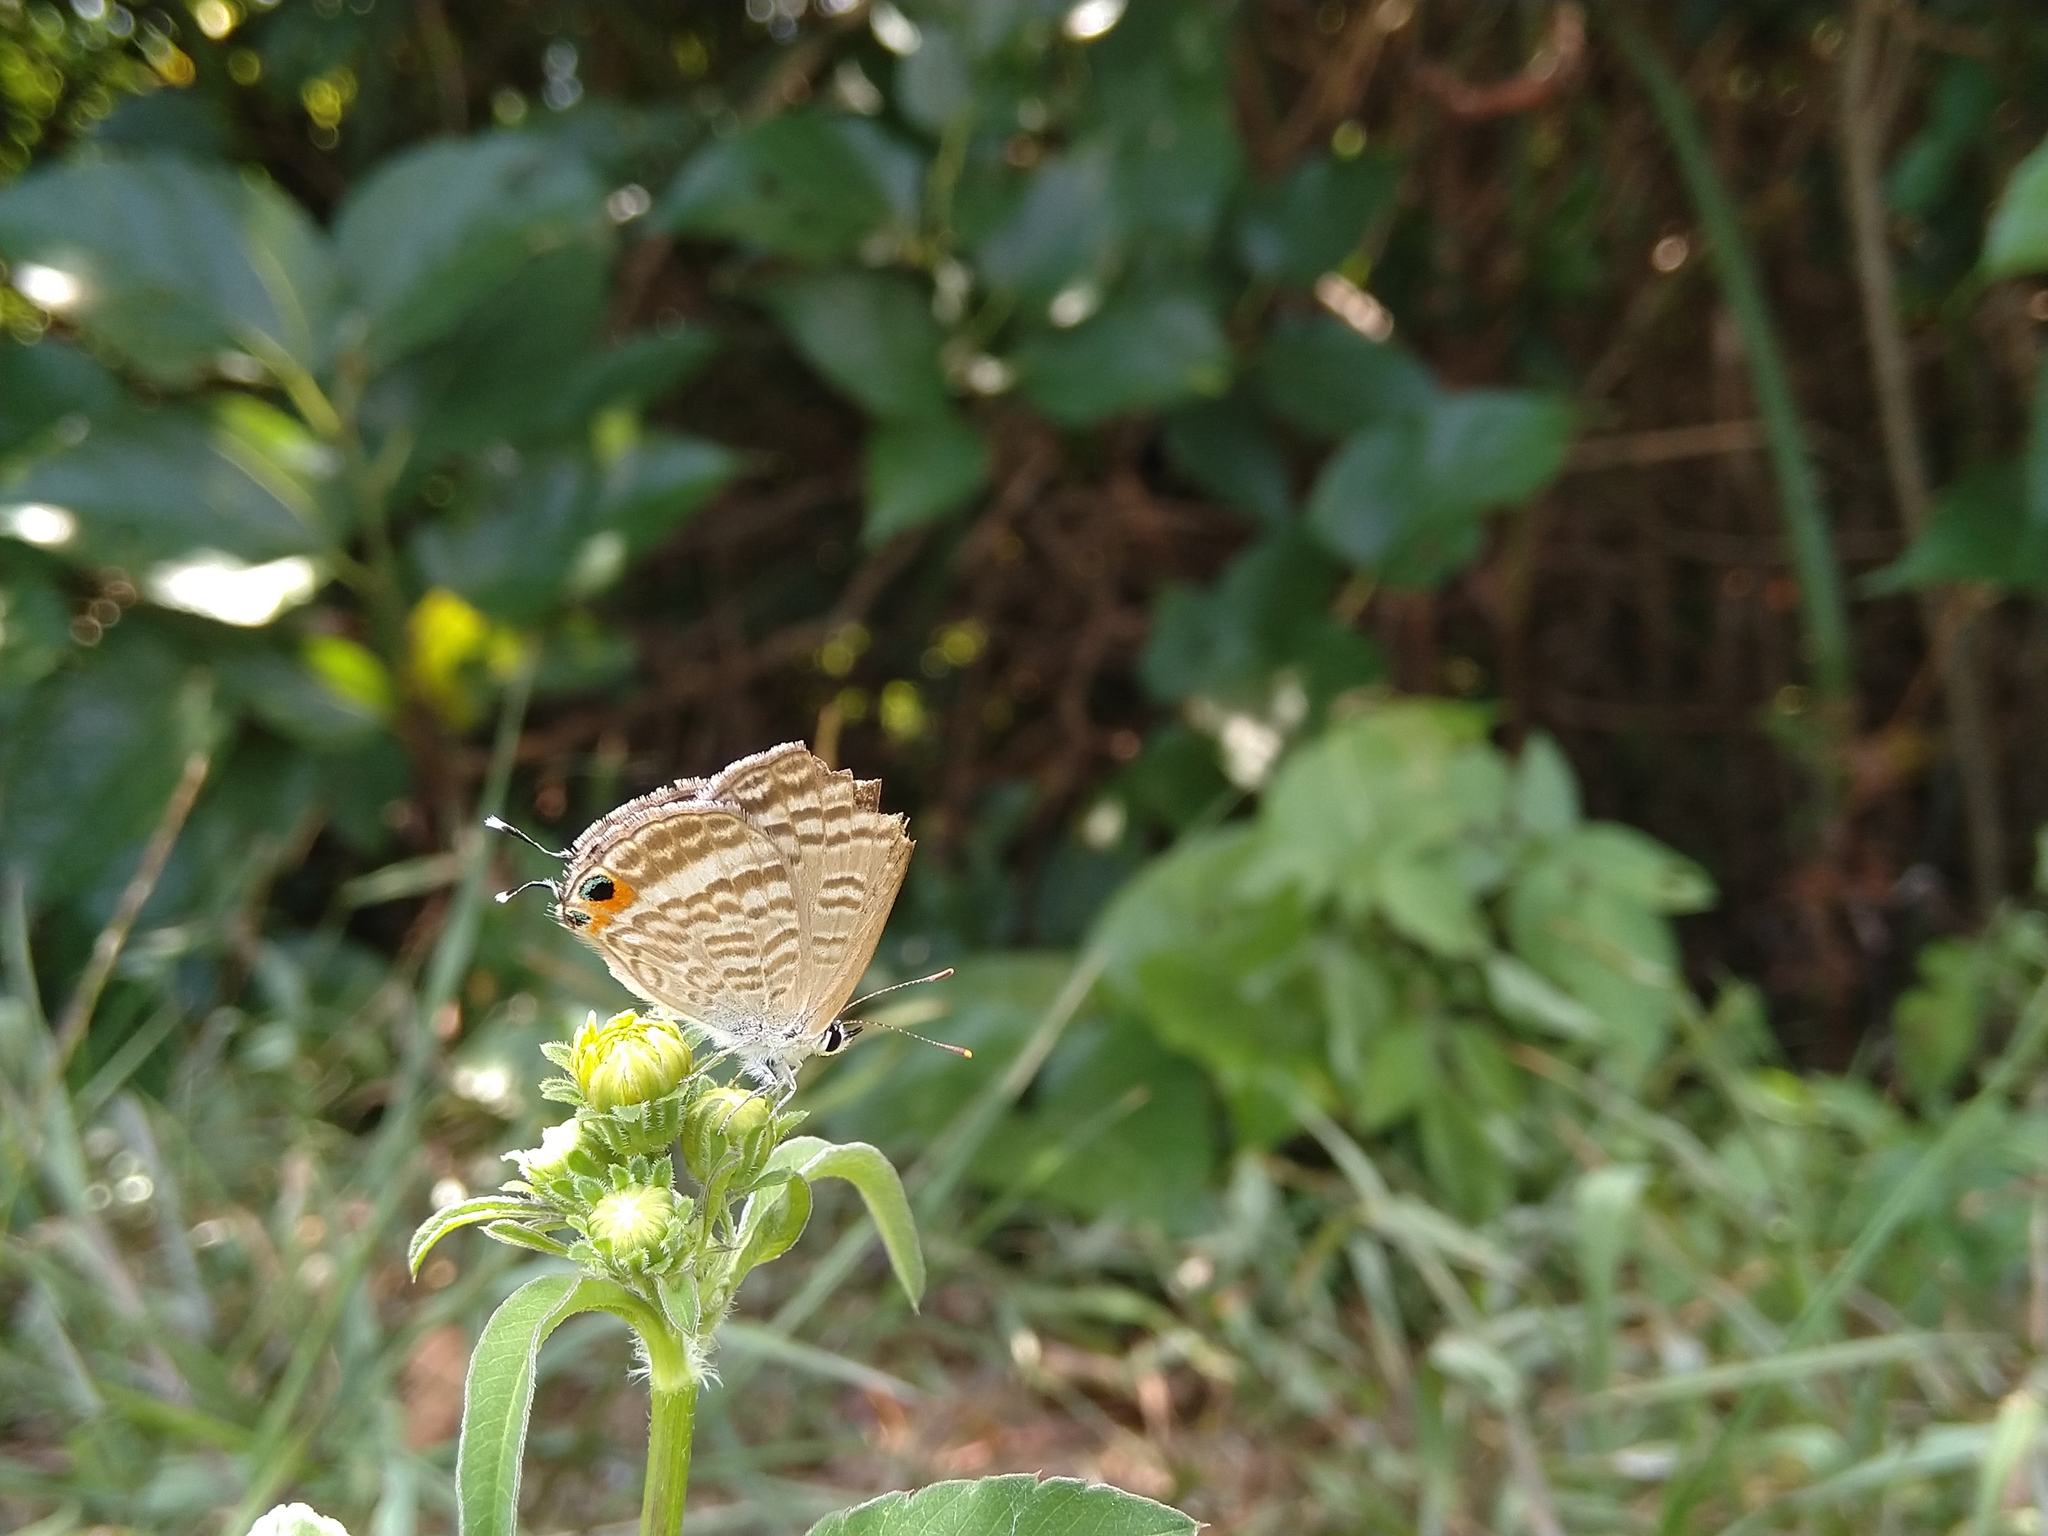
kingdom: Animalia
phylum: Arthropoda
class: Insecta
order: Lepidoptera
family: Lycaenidae
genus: Lampides
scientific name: Lampides boeticus
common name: Long-tailed blue
